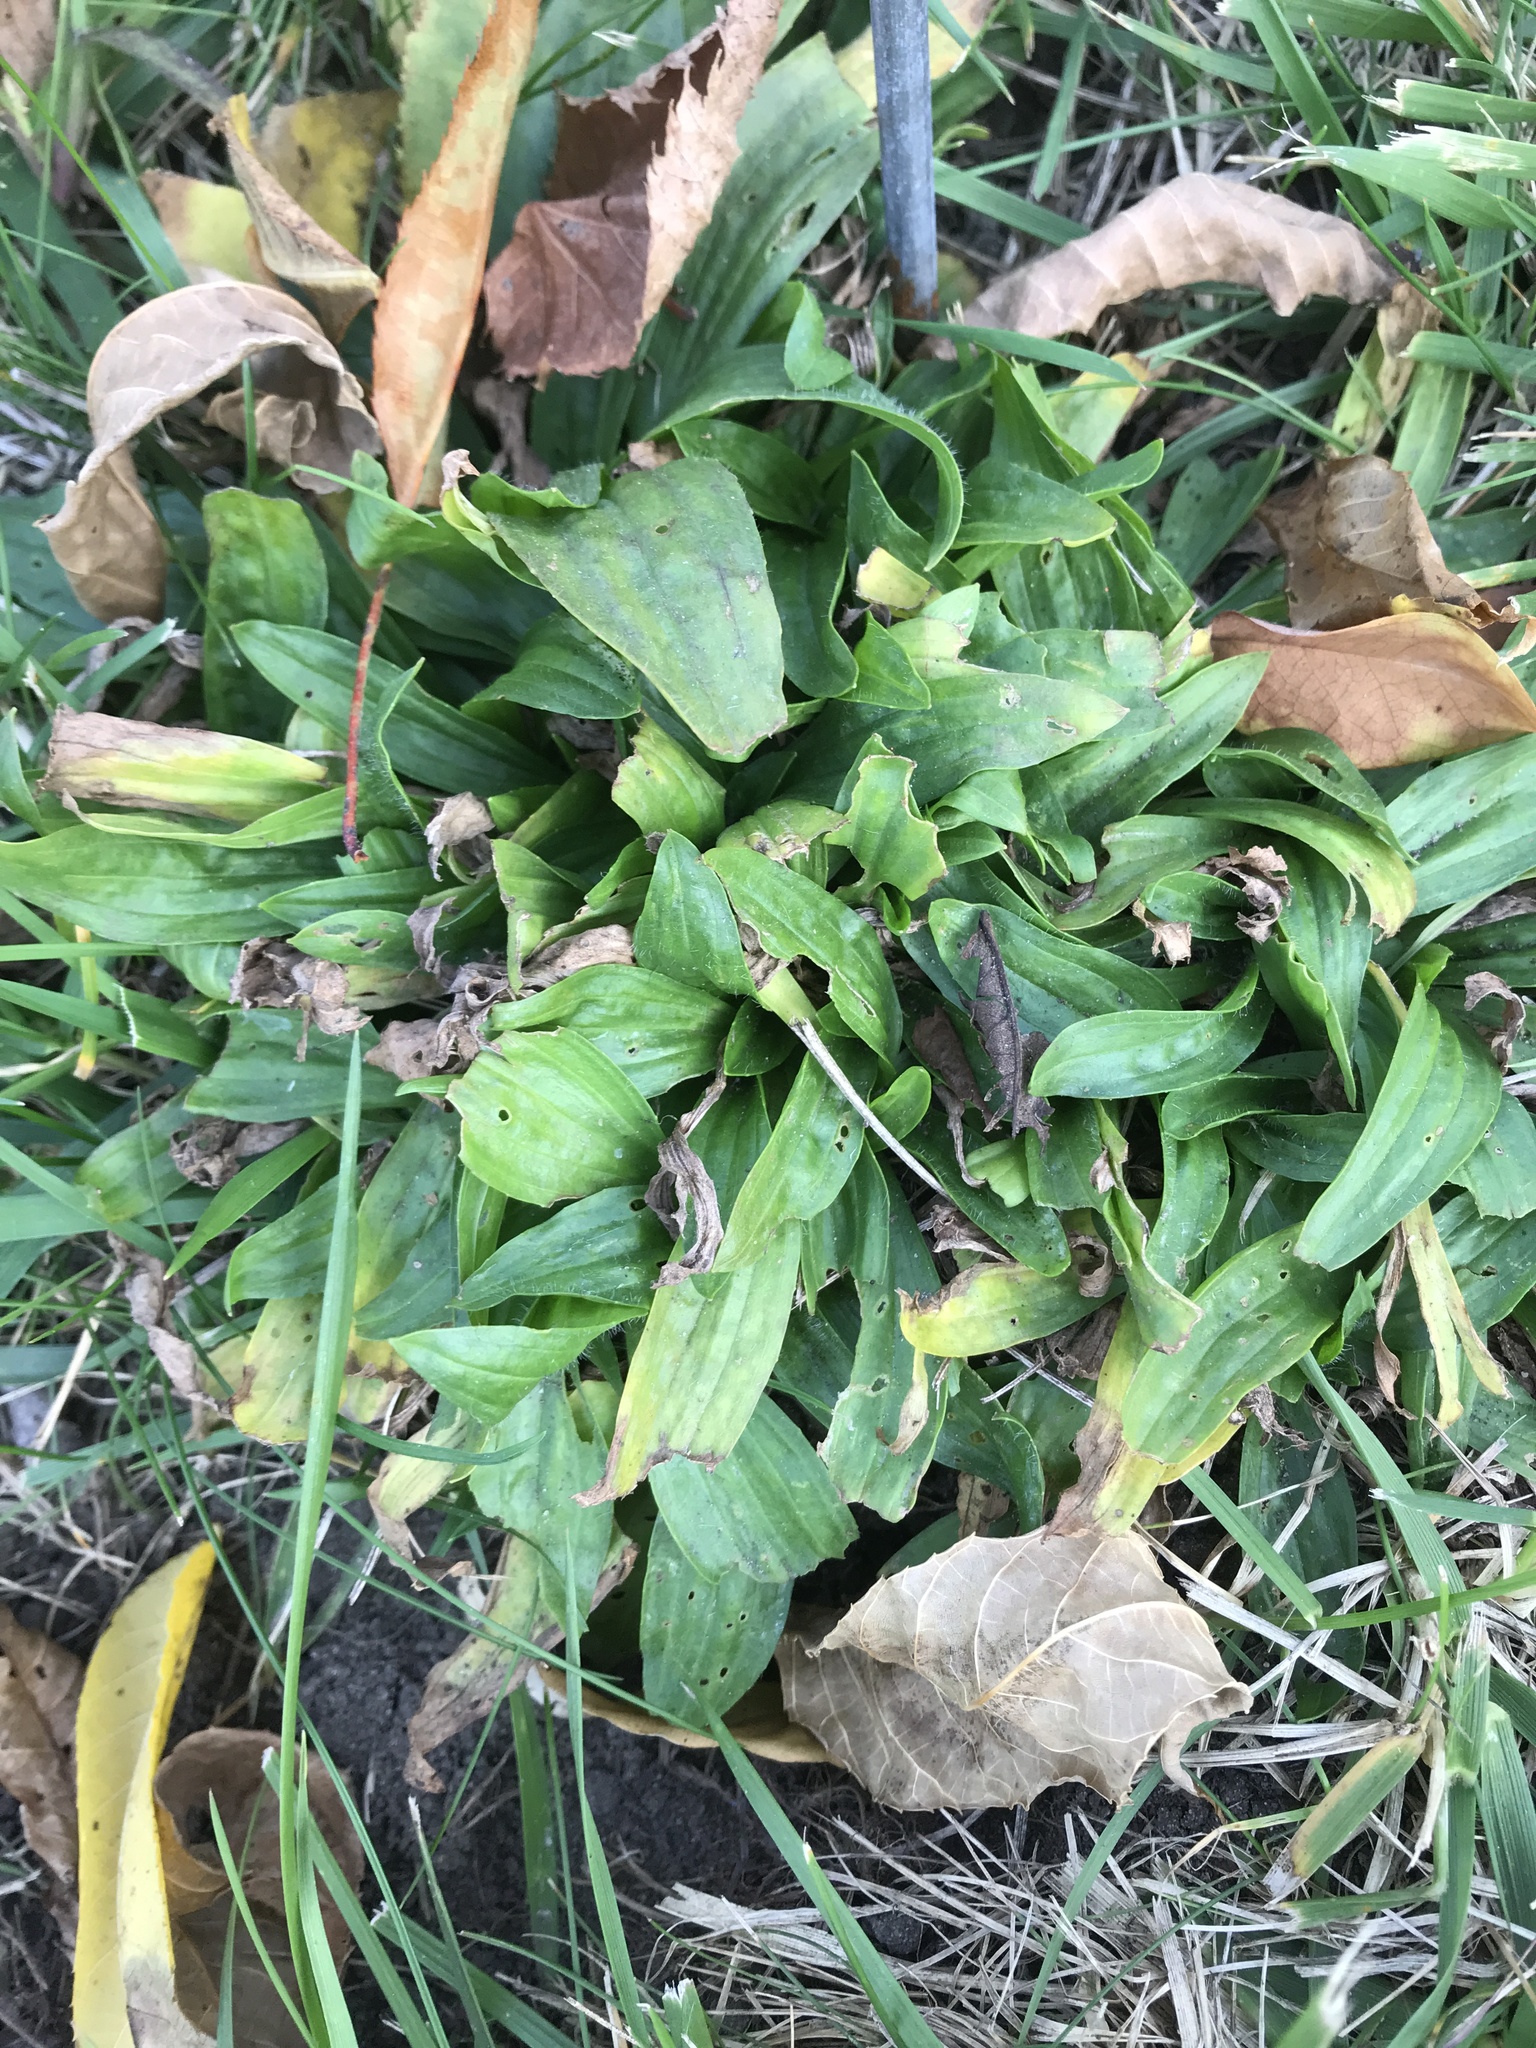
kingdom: Plantae
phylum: Tracheophyta
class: Magnoliopsida
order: Lamiales
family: Plantaginaceae
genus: Plantago
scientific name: Plantago lanceolata
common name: Ribwort plantain
